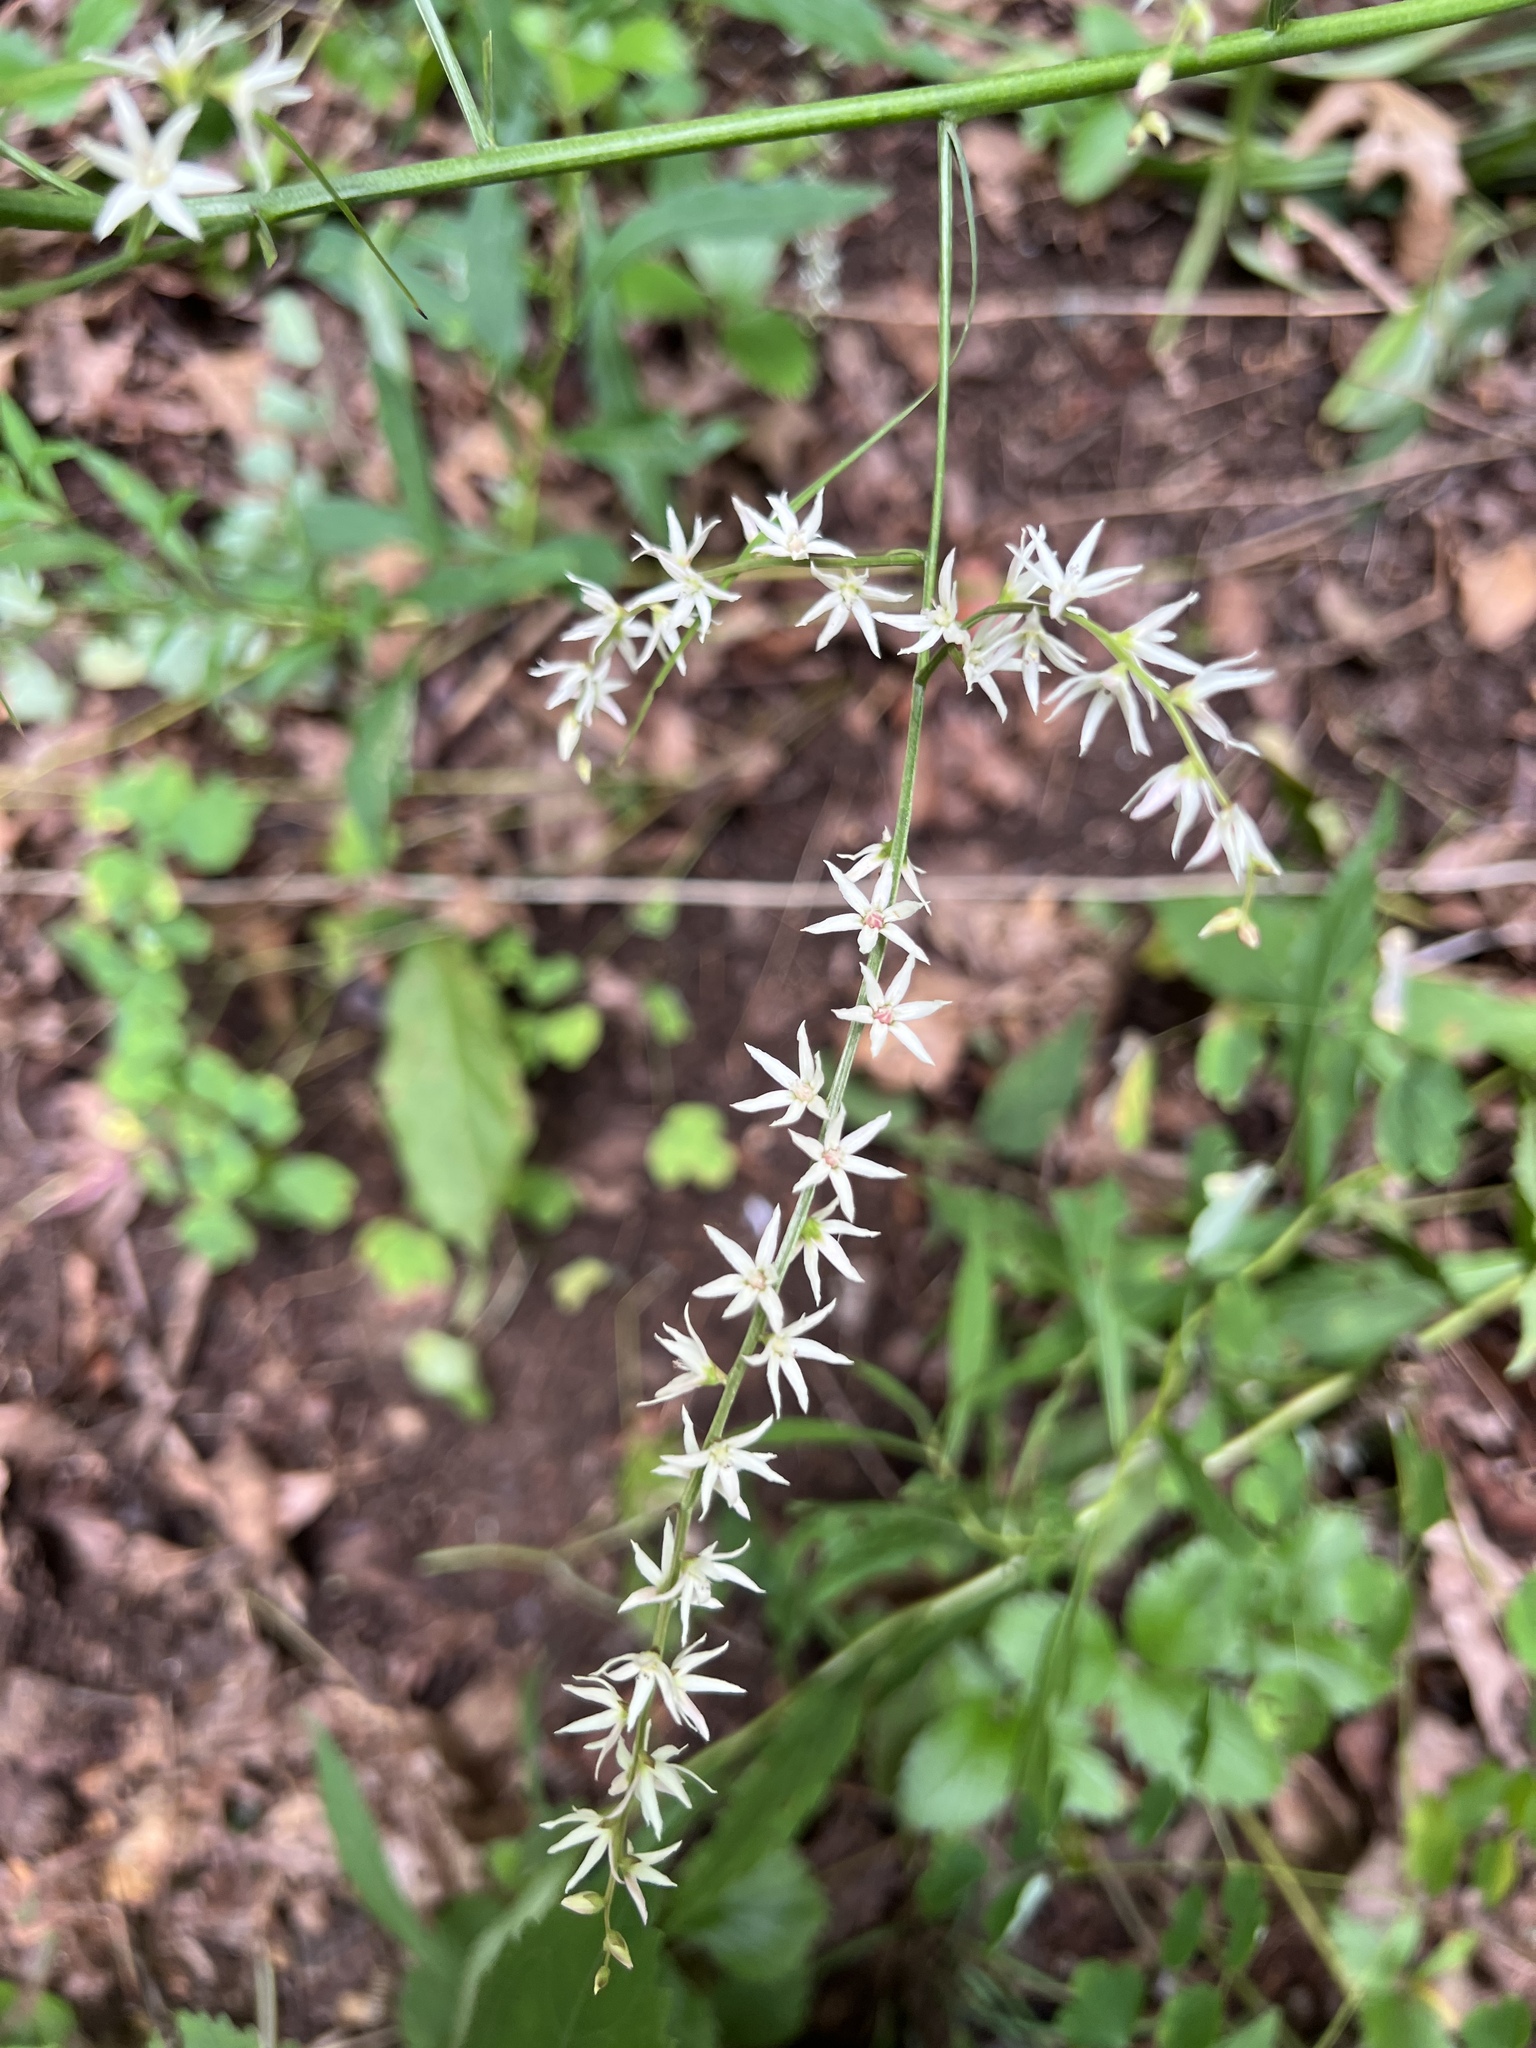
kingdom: Plantae
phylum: Tracheophyta
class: Liliopsida
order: Liliales
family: Melanthiaceae
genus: Stenanthium
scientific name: Stenanthium gramineum
